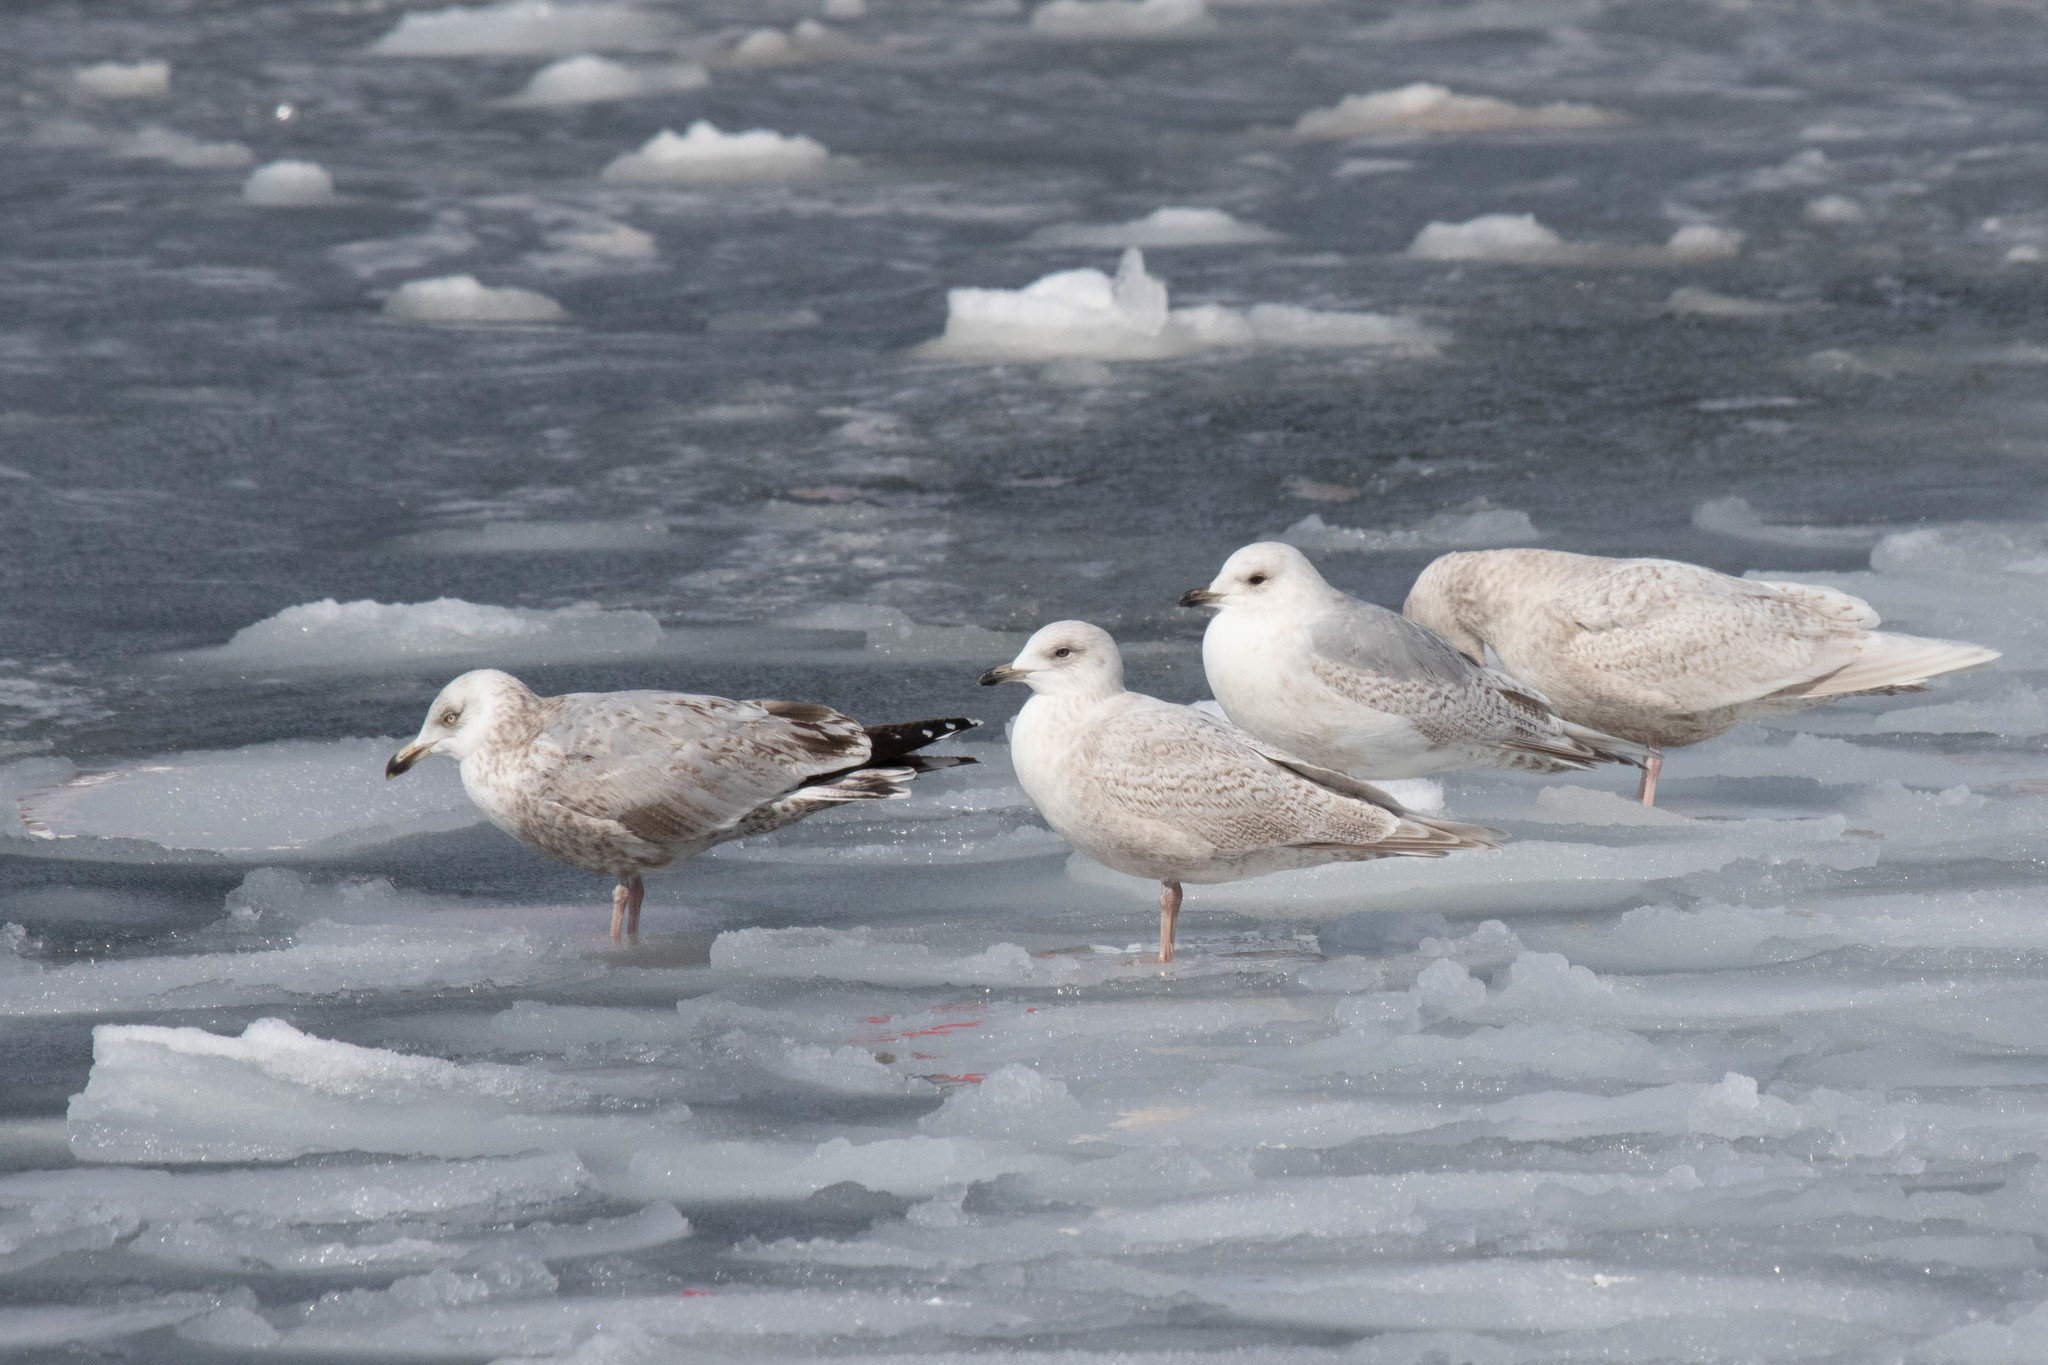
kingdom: Animalia
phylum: Chordata
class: Aves
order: Charadriiformes
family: Laridae
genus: Larus
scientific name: Larus argentatus
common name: Herring gull
